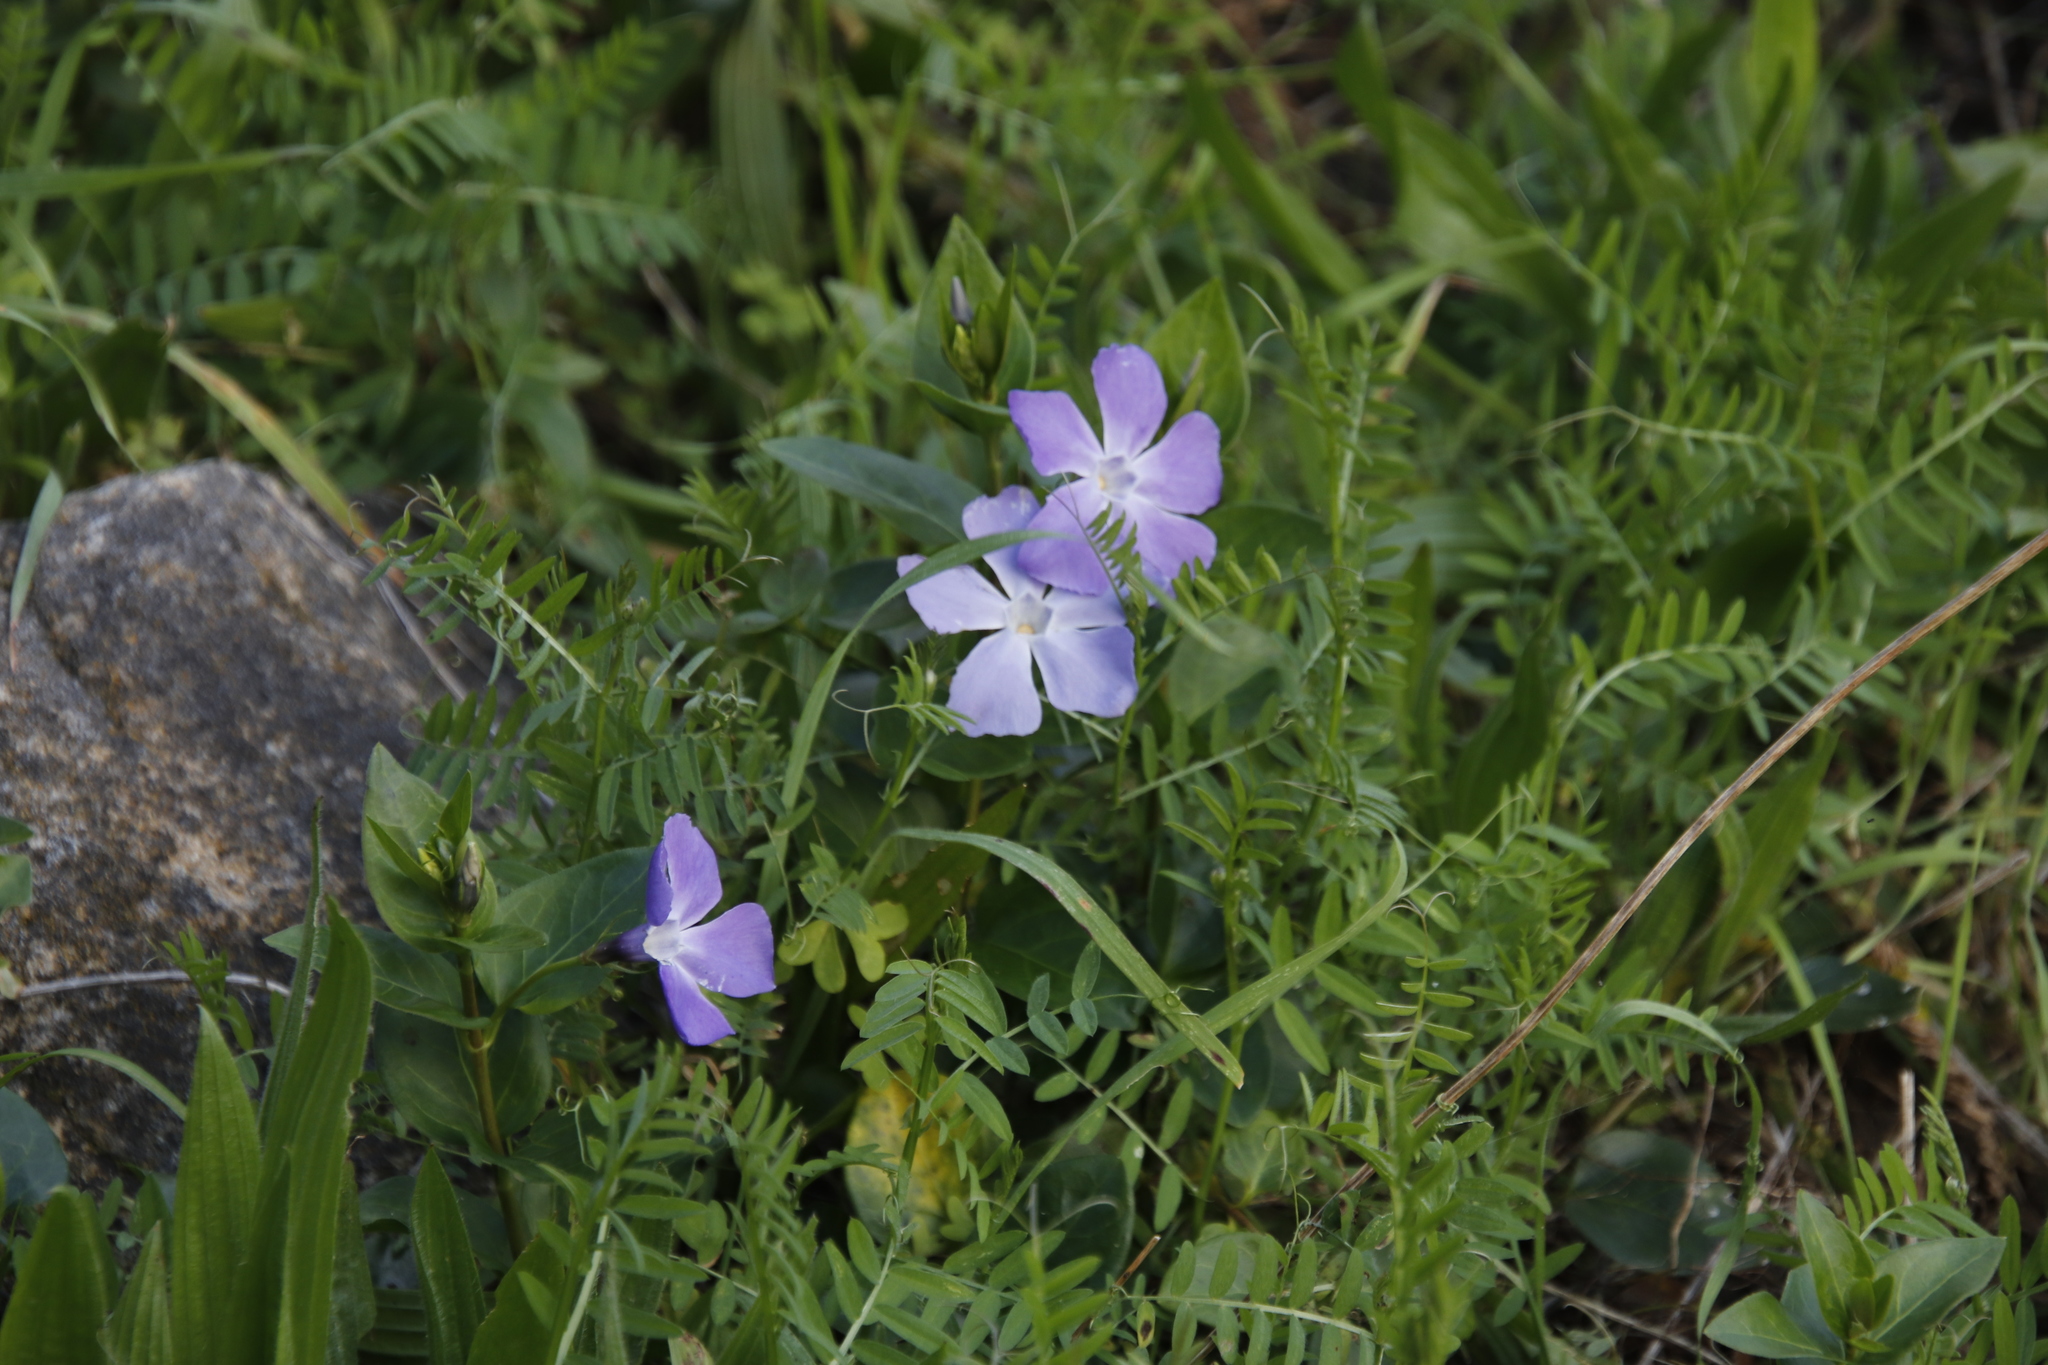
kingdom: Plantae
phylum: Tracheophyta
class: Magnoliopsida
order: Gentianales
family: Apocynaceae
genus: Vinca
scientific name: Vinca major
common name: Greater periwinkle
